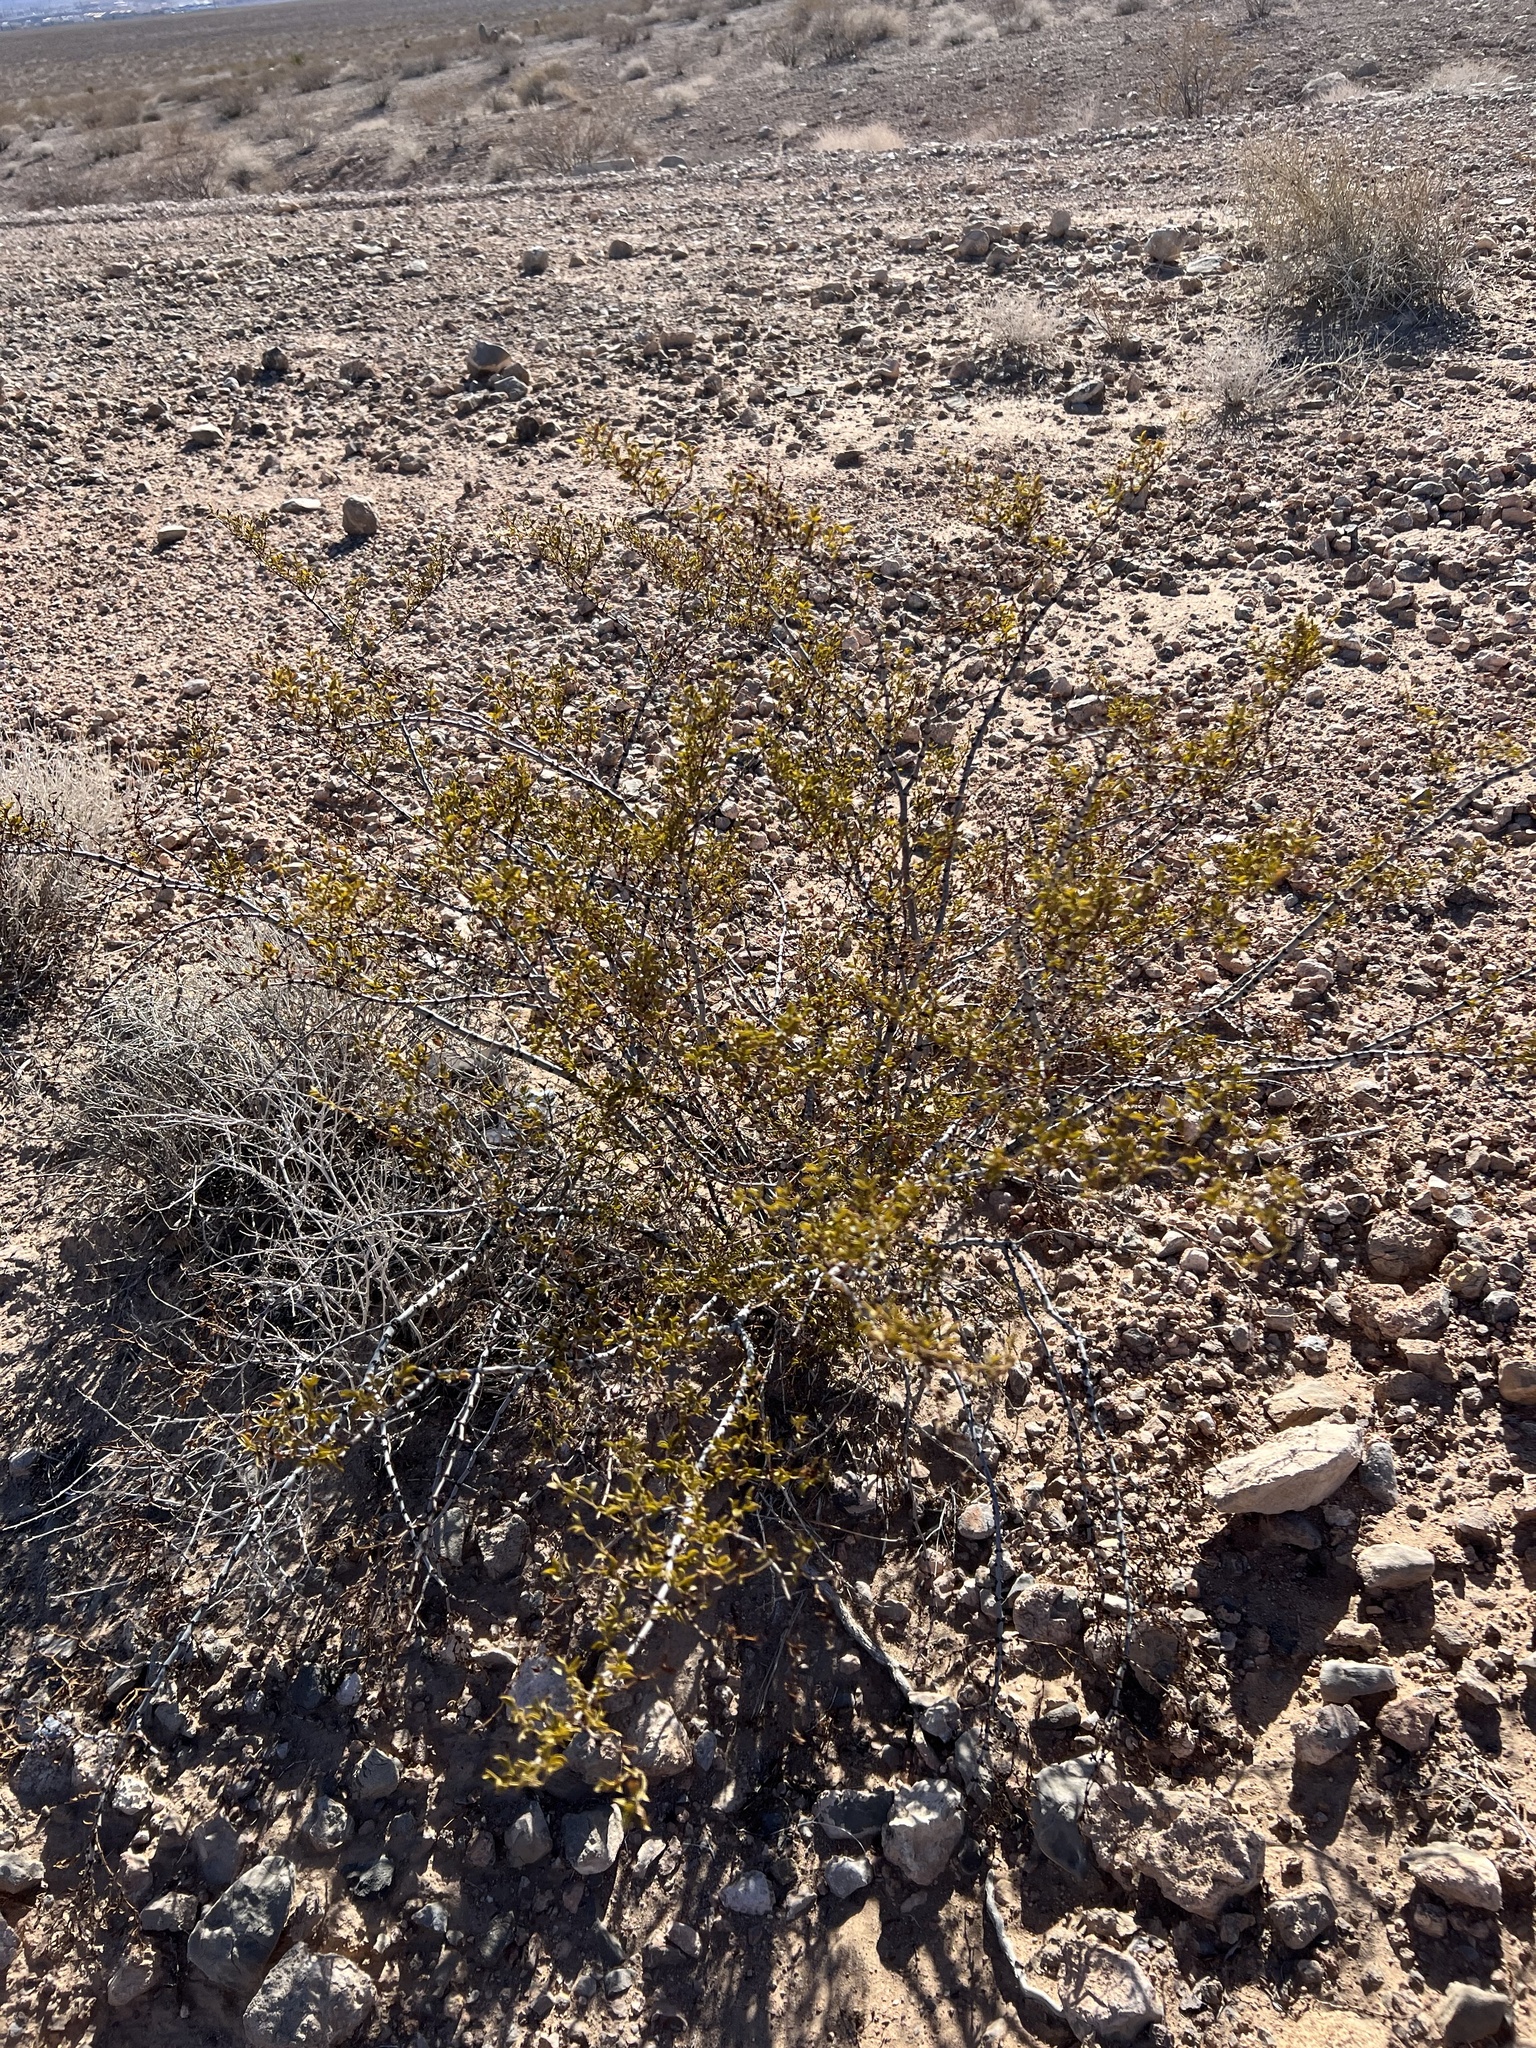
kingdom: Plantae
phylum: Tracheophyta
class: Magnoliopsida
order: Zygophyllales
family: Zygophyllaceae
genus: Larrea
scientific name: Larrea tridentata
